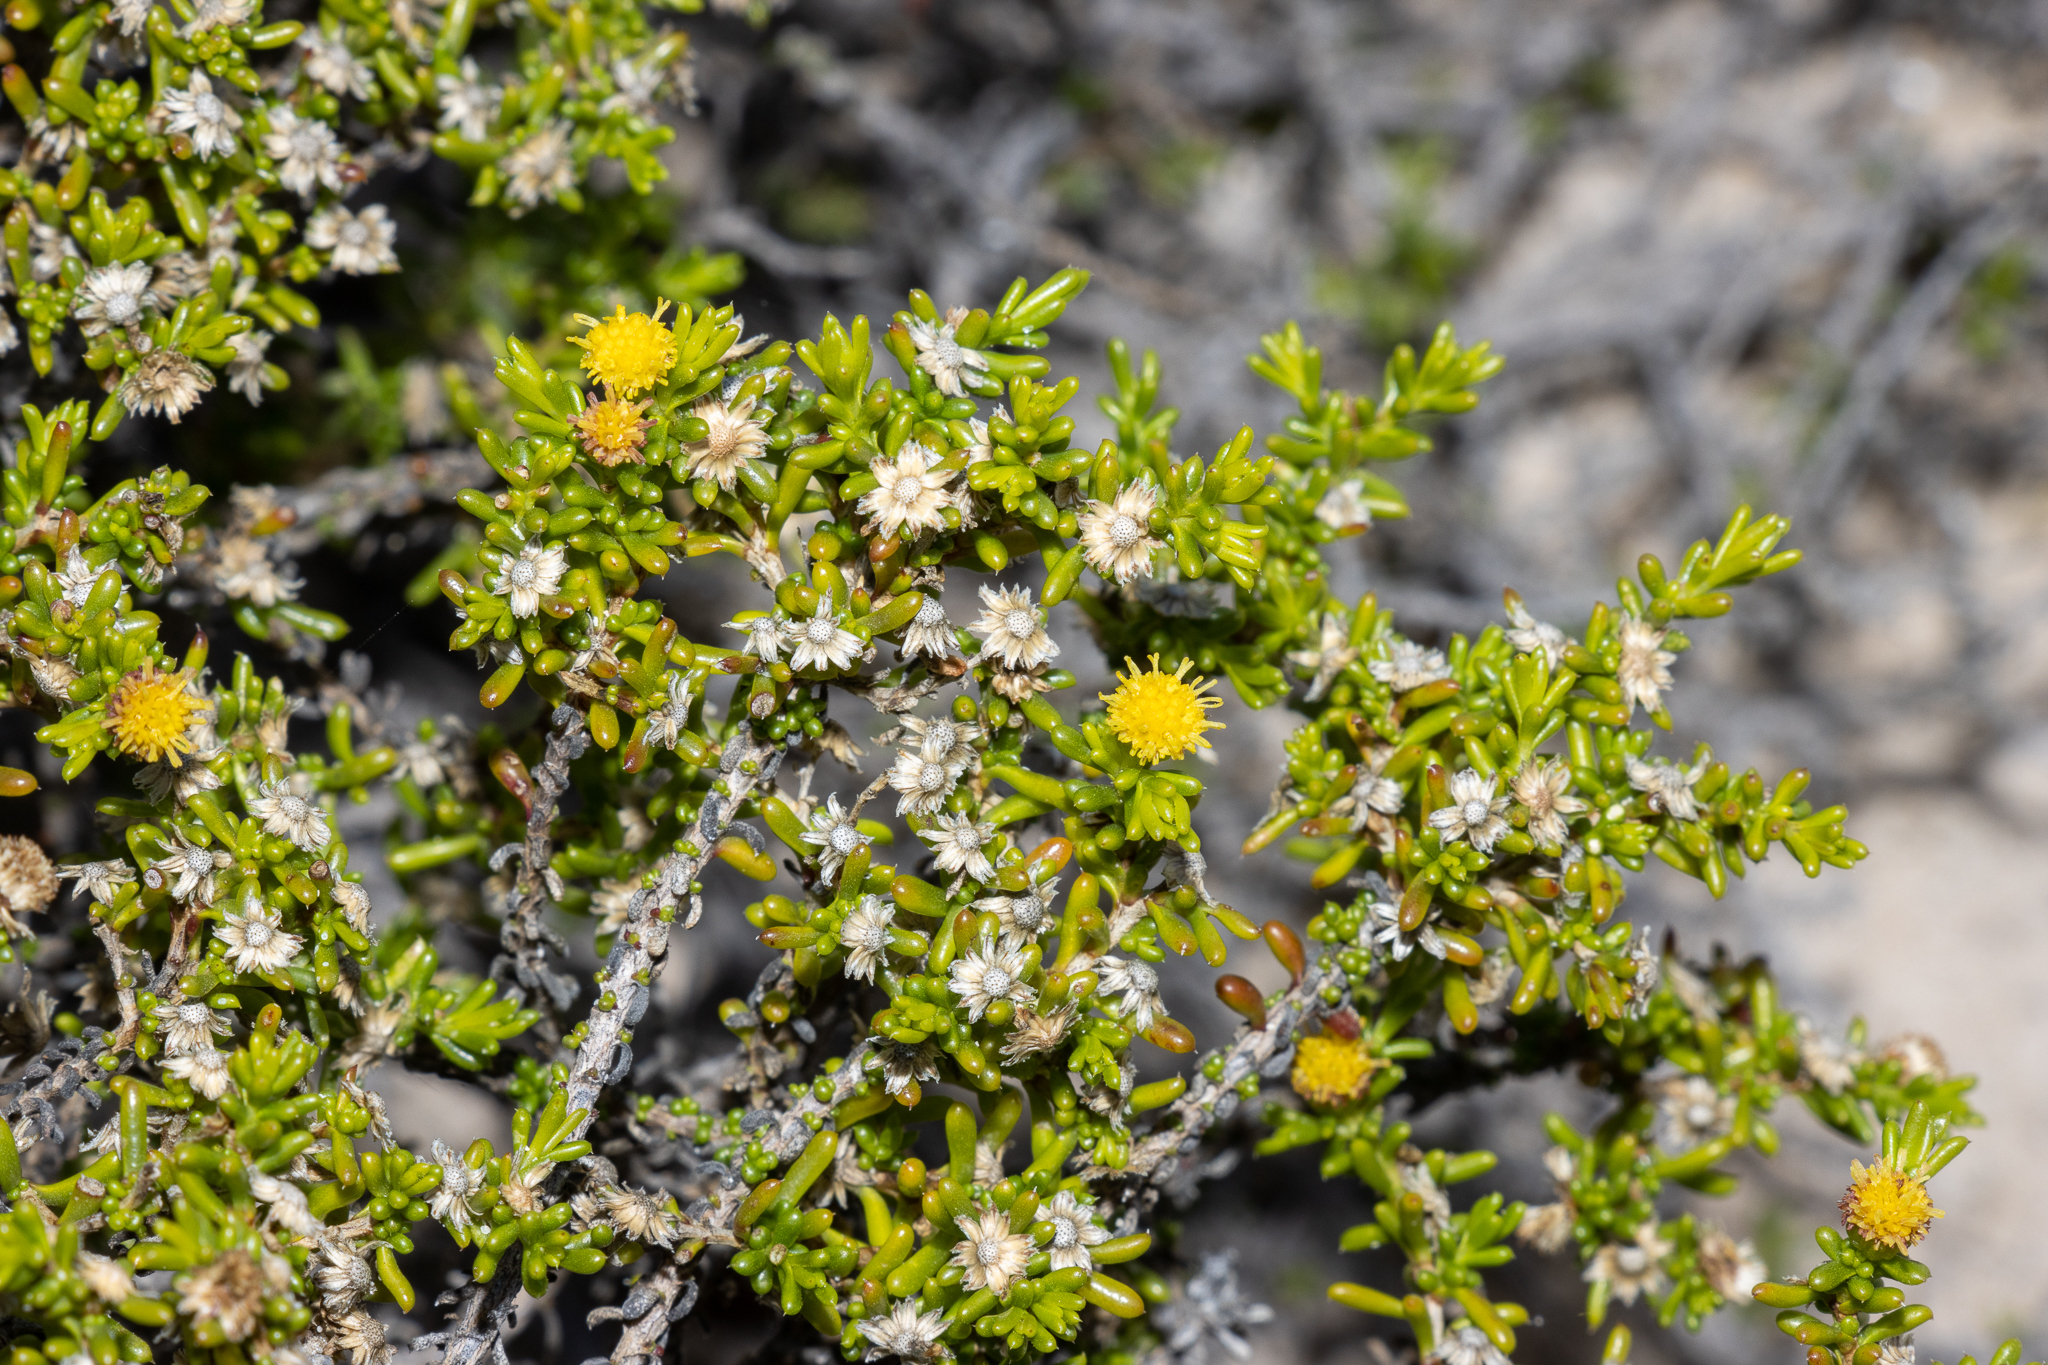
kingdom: Plantae
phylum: Tracheophyta
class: Magnoliopsida
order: Asterales
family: Asteraceae
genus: Kippistia
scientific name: Kippistia suaedifolia
